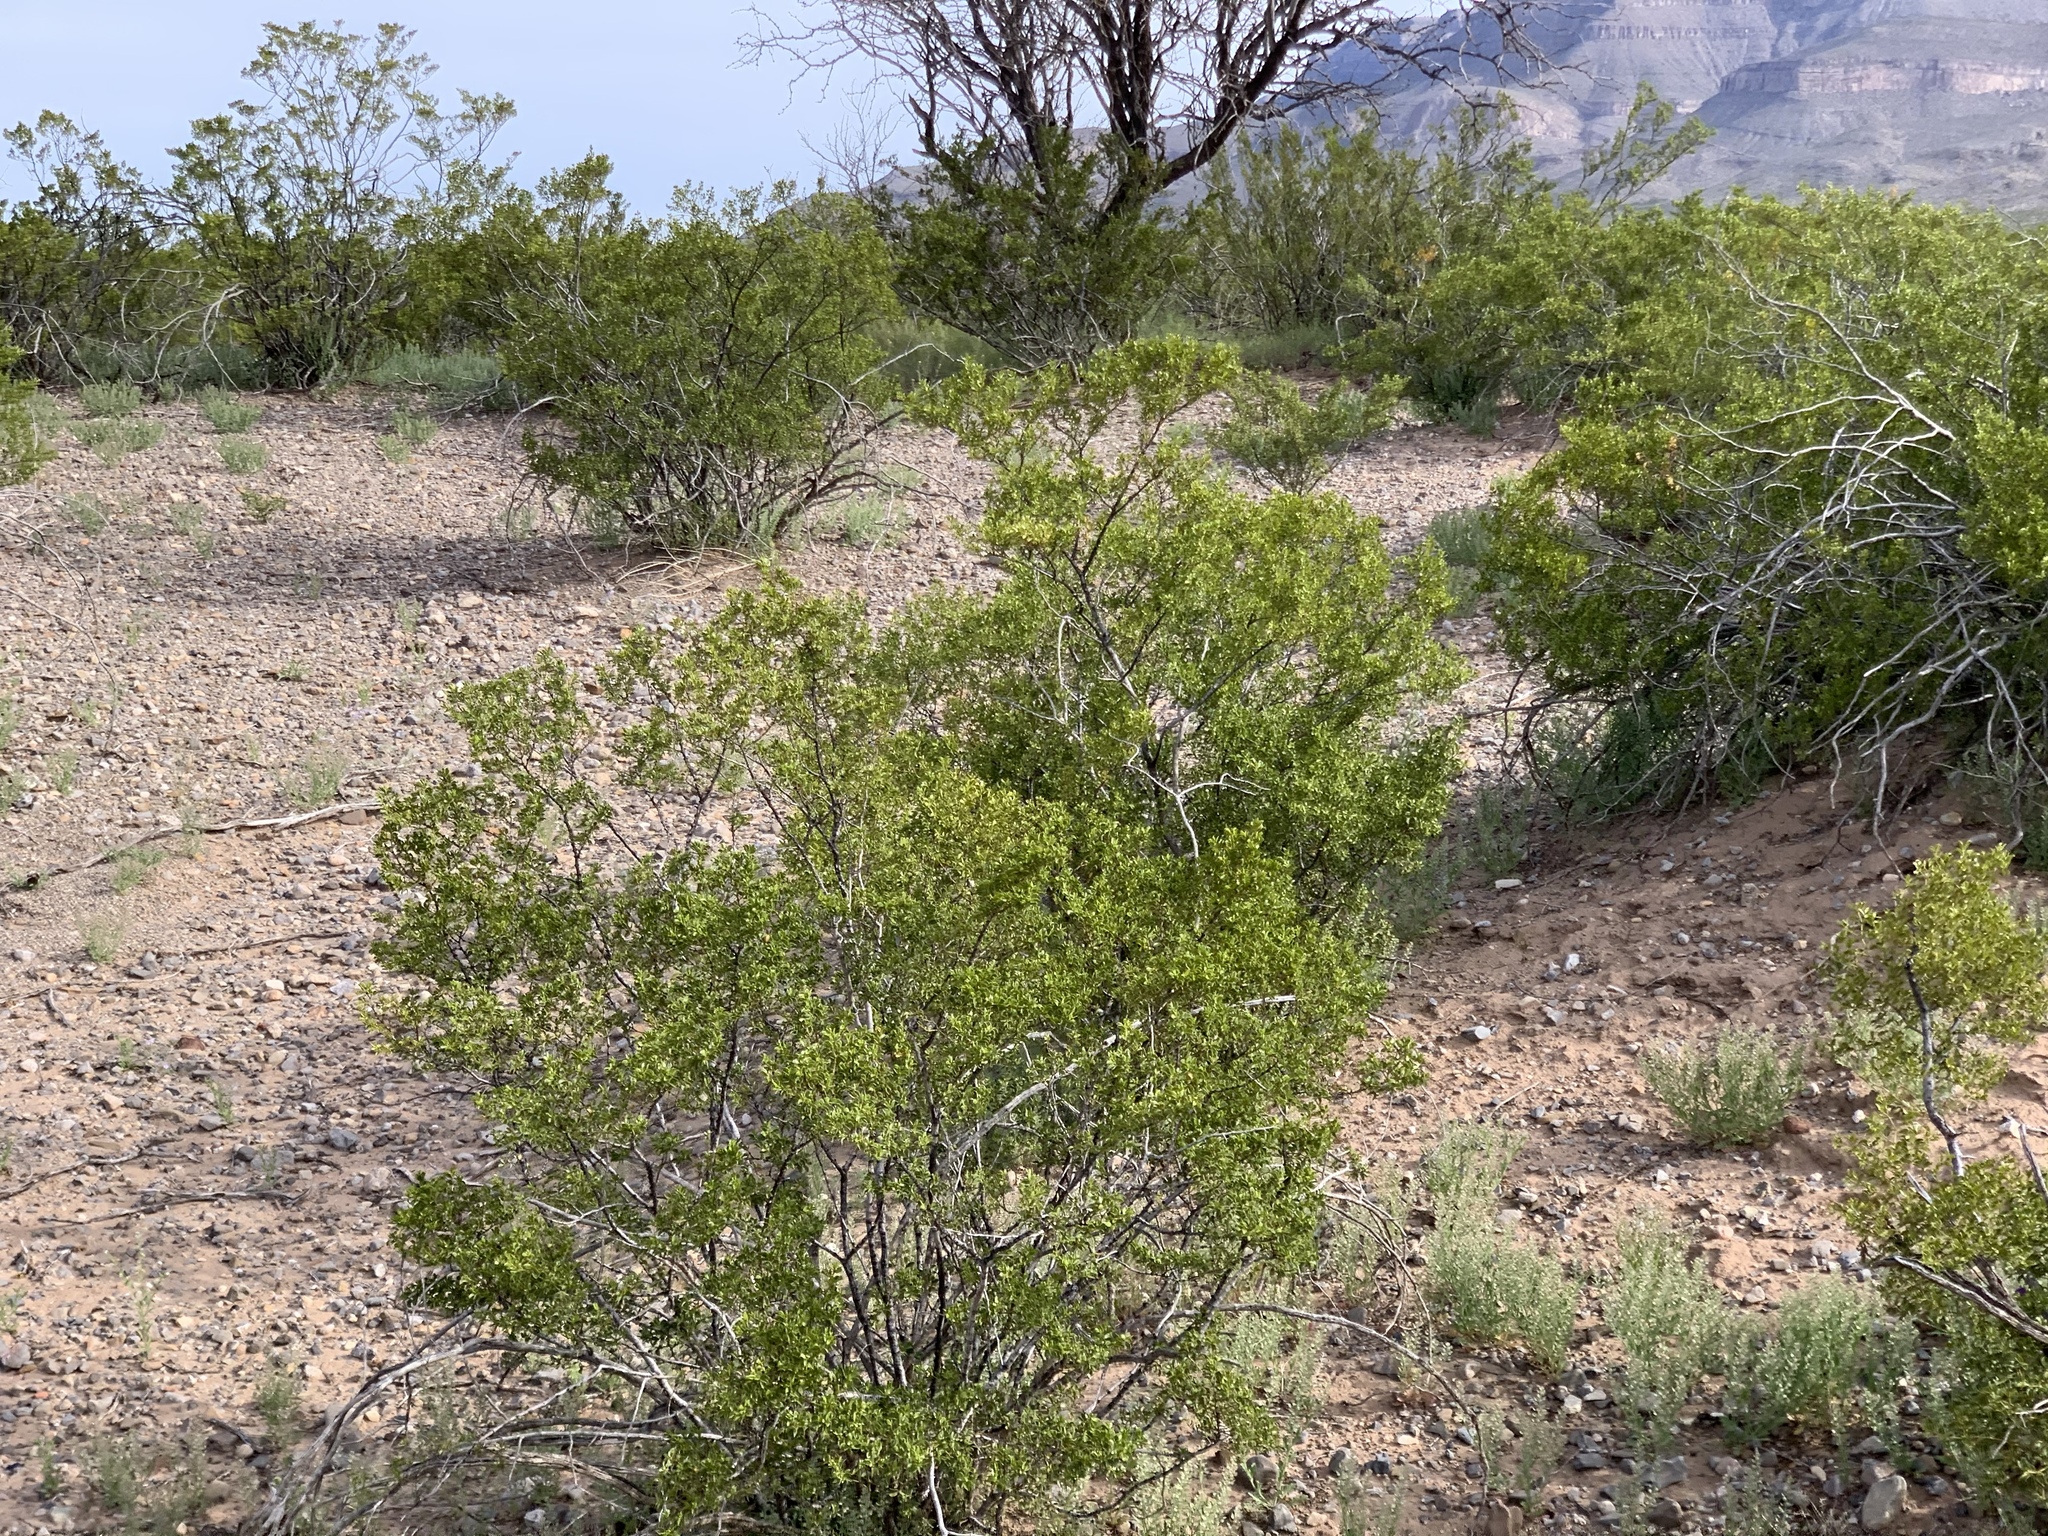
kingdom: Plantae
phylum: Tracheophyta
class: Magnoliopsida
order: Zygophyllales
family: Zygophyllaceae
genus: Larrea
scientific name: Larrea tridentata
